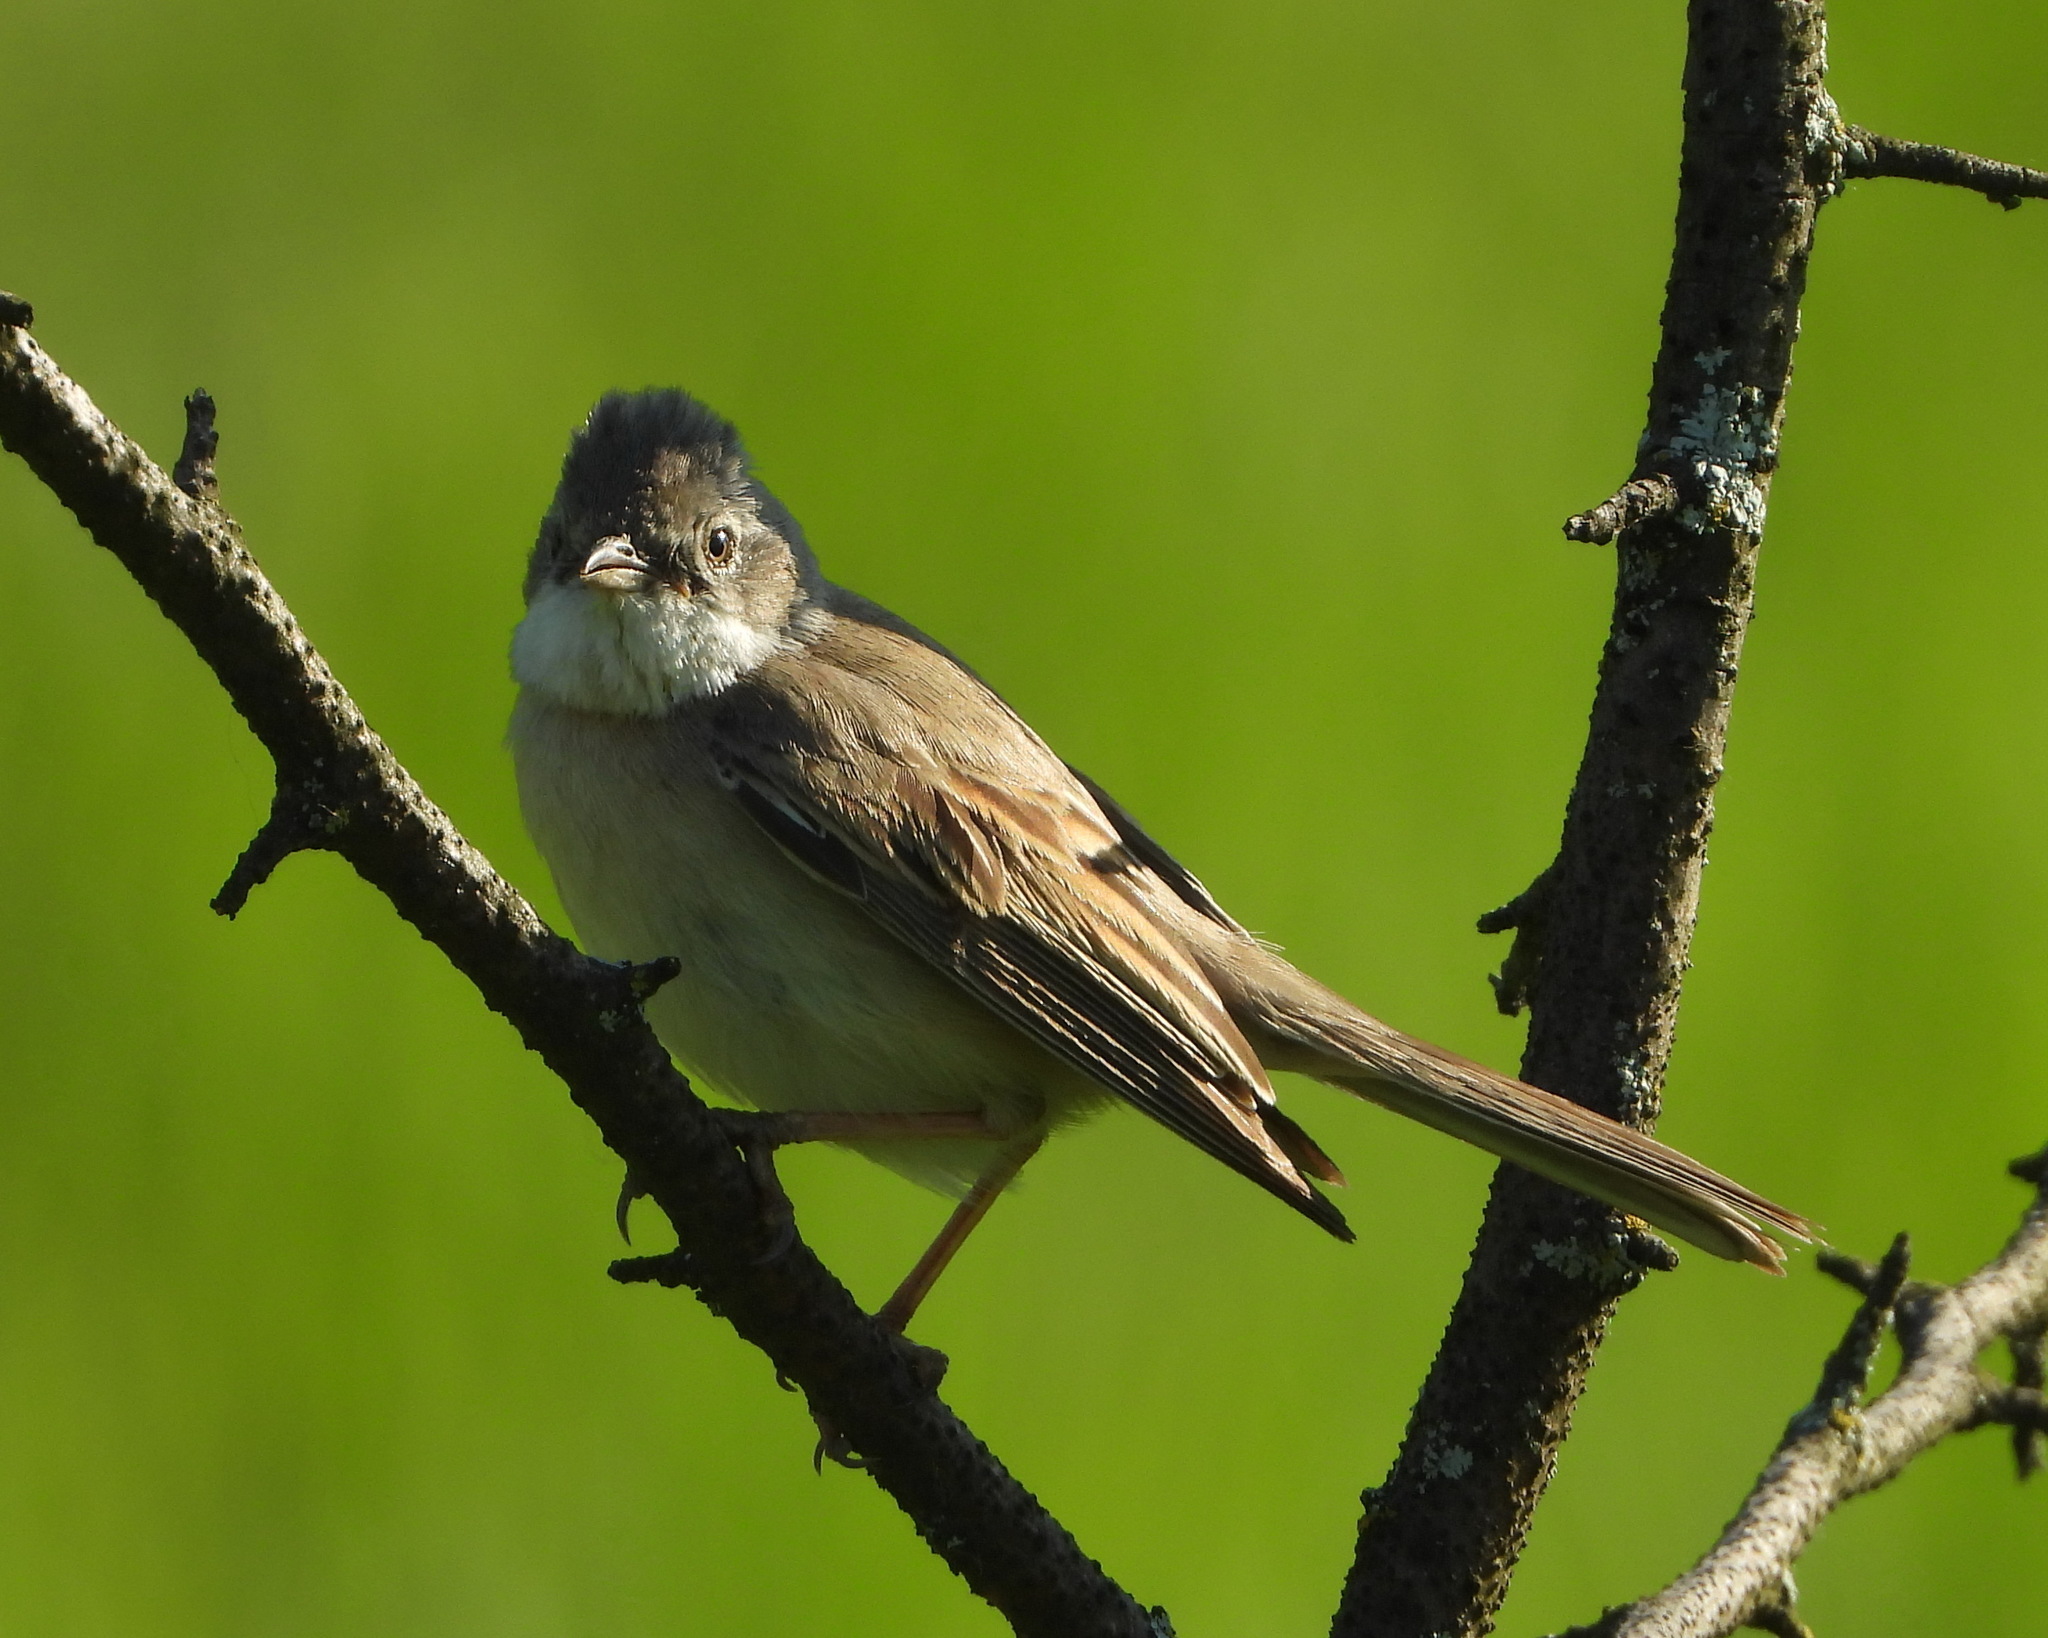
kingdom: Animalia
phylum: Chordata
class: Aves
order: Passeriformes
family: Sylviidae
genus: Sylvia
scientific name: Sylvia communis
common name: Common whitethroat
